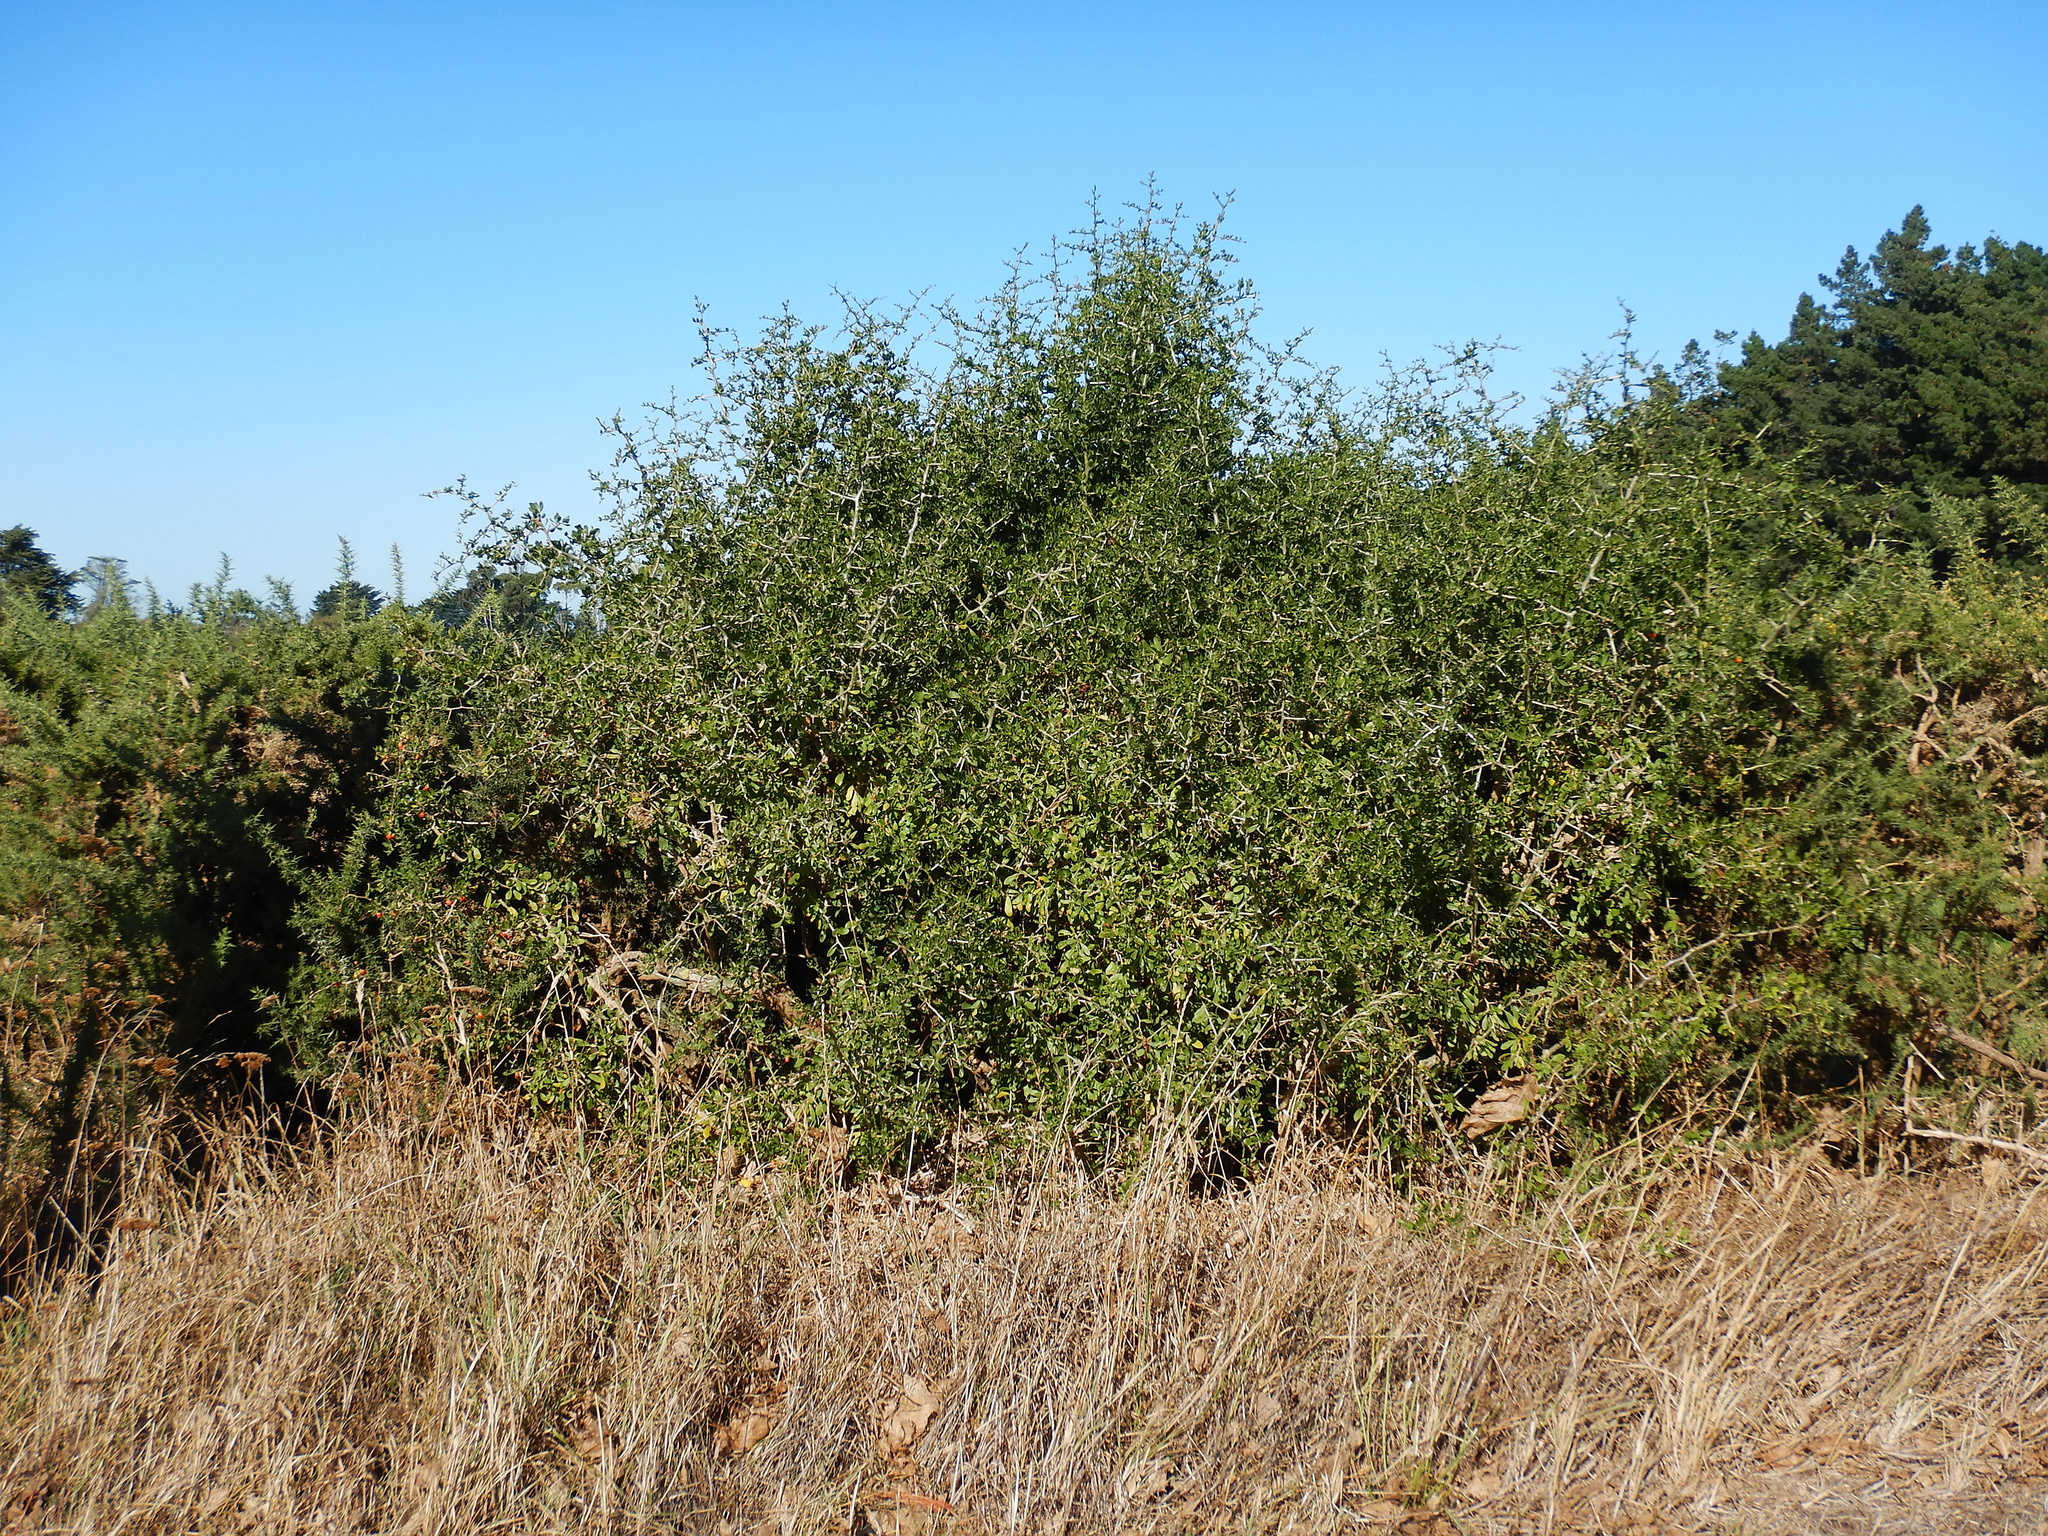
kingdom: Plantae
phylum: Tracheophyta
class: Magnoliopsida
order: Solanales
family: Solanaceae
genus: Lycium
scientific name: Lycium ferocissimum
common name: African boxthorn
